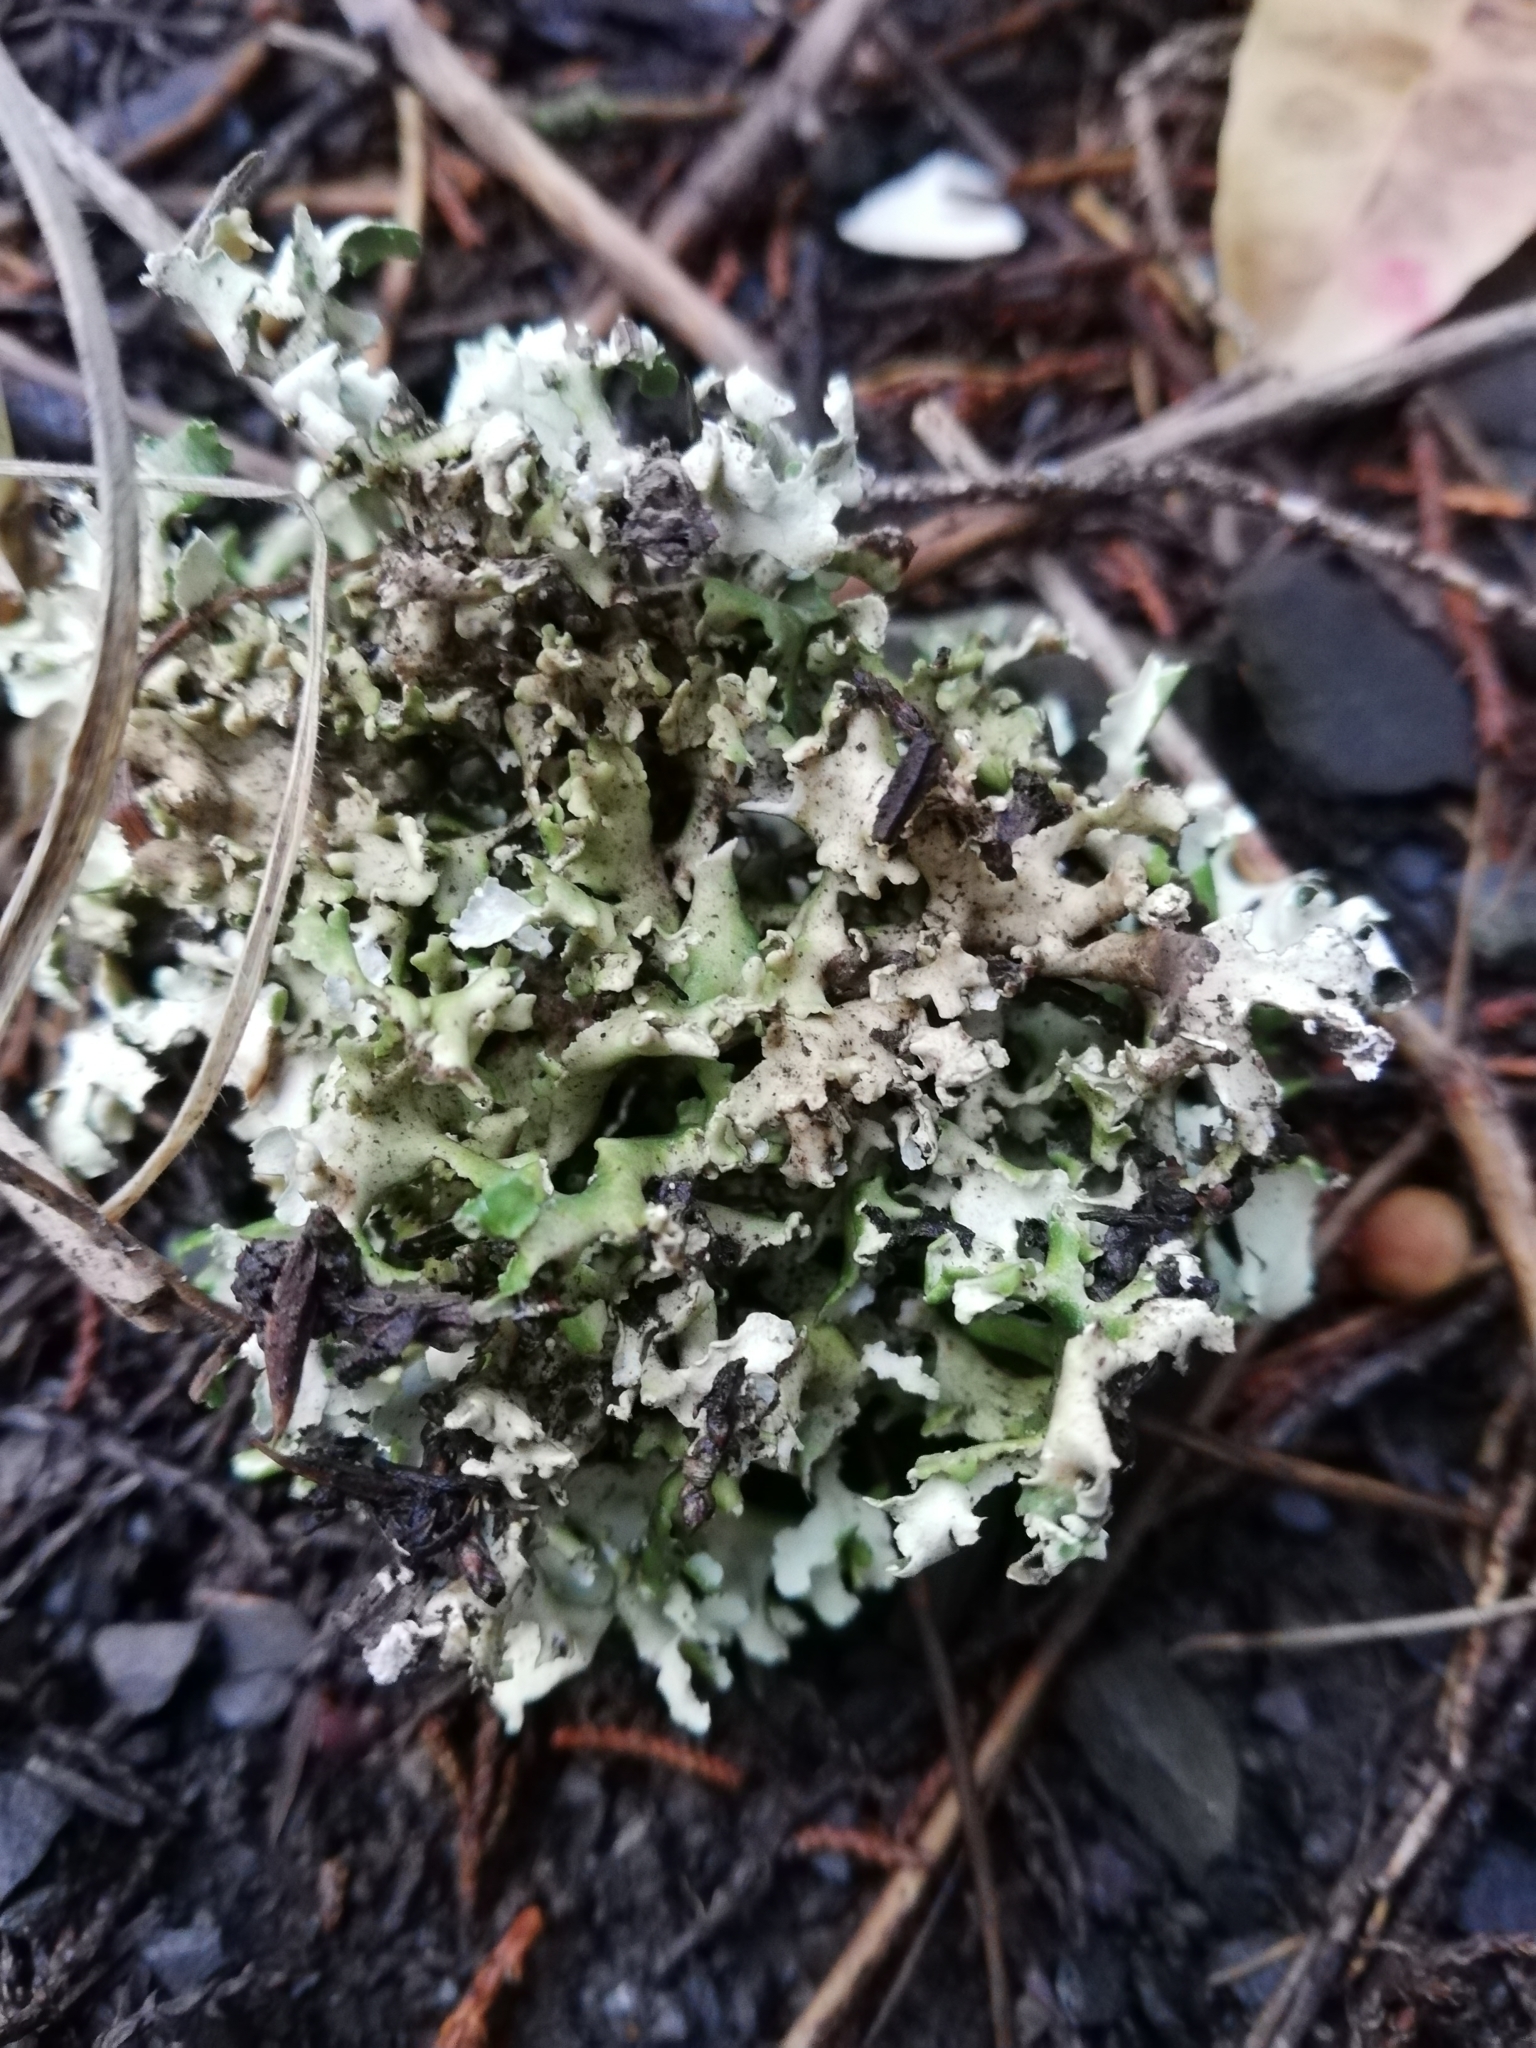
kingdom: Fungi
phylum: Ascomycota
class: Lecanoromycetes
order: Lecanorales
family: Cladoniaceae
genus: Cladonia
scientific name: Cladonia foliacea
